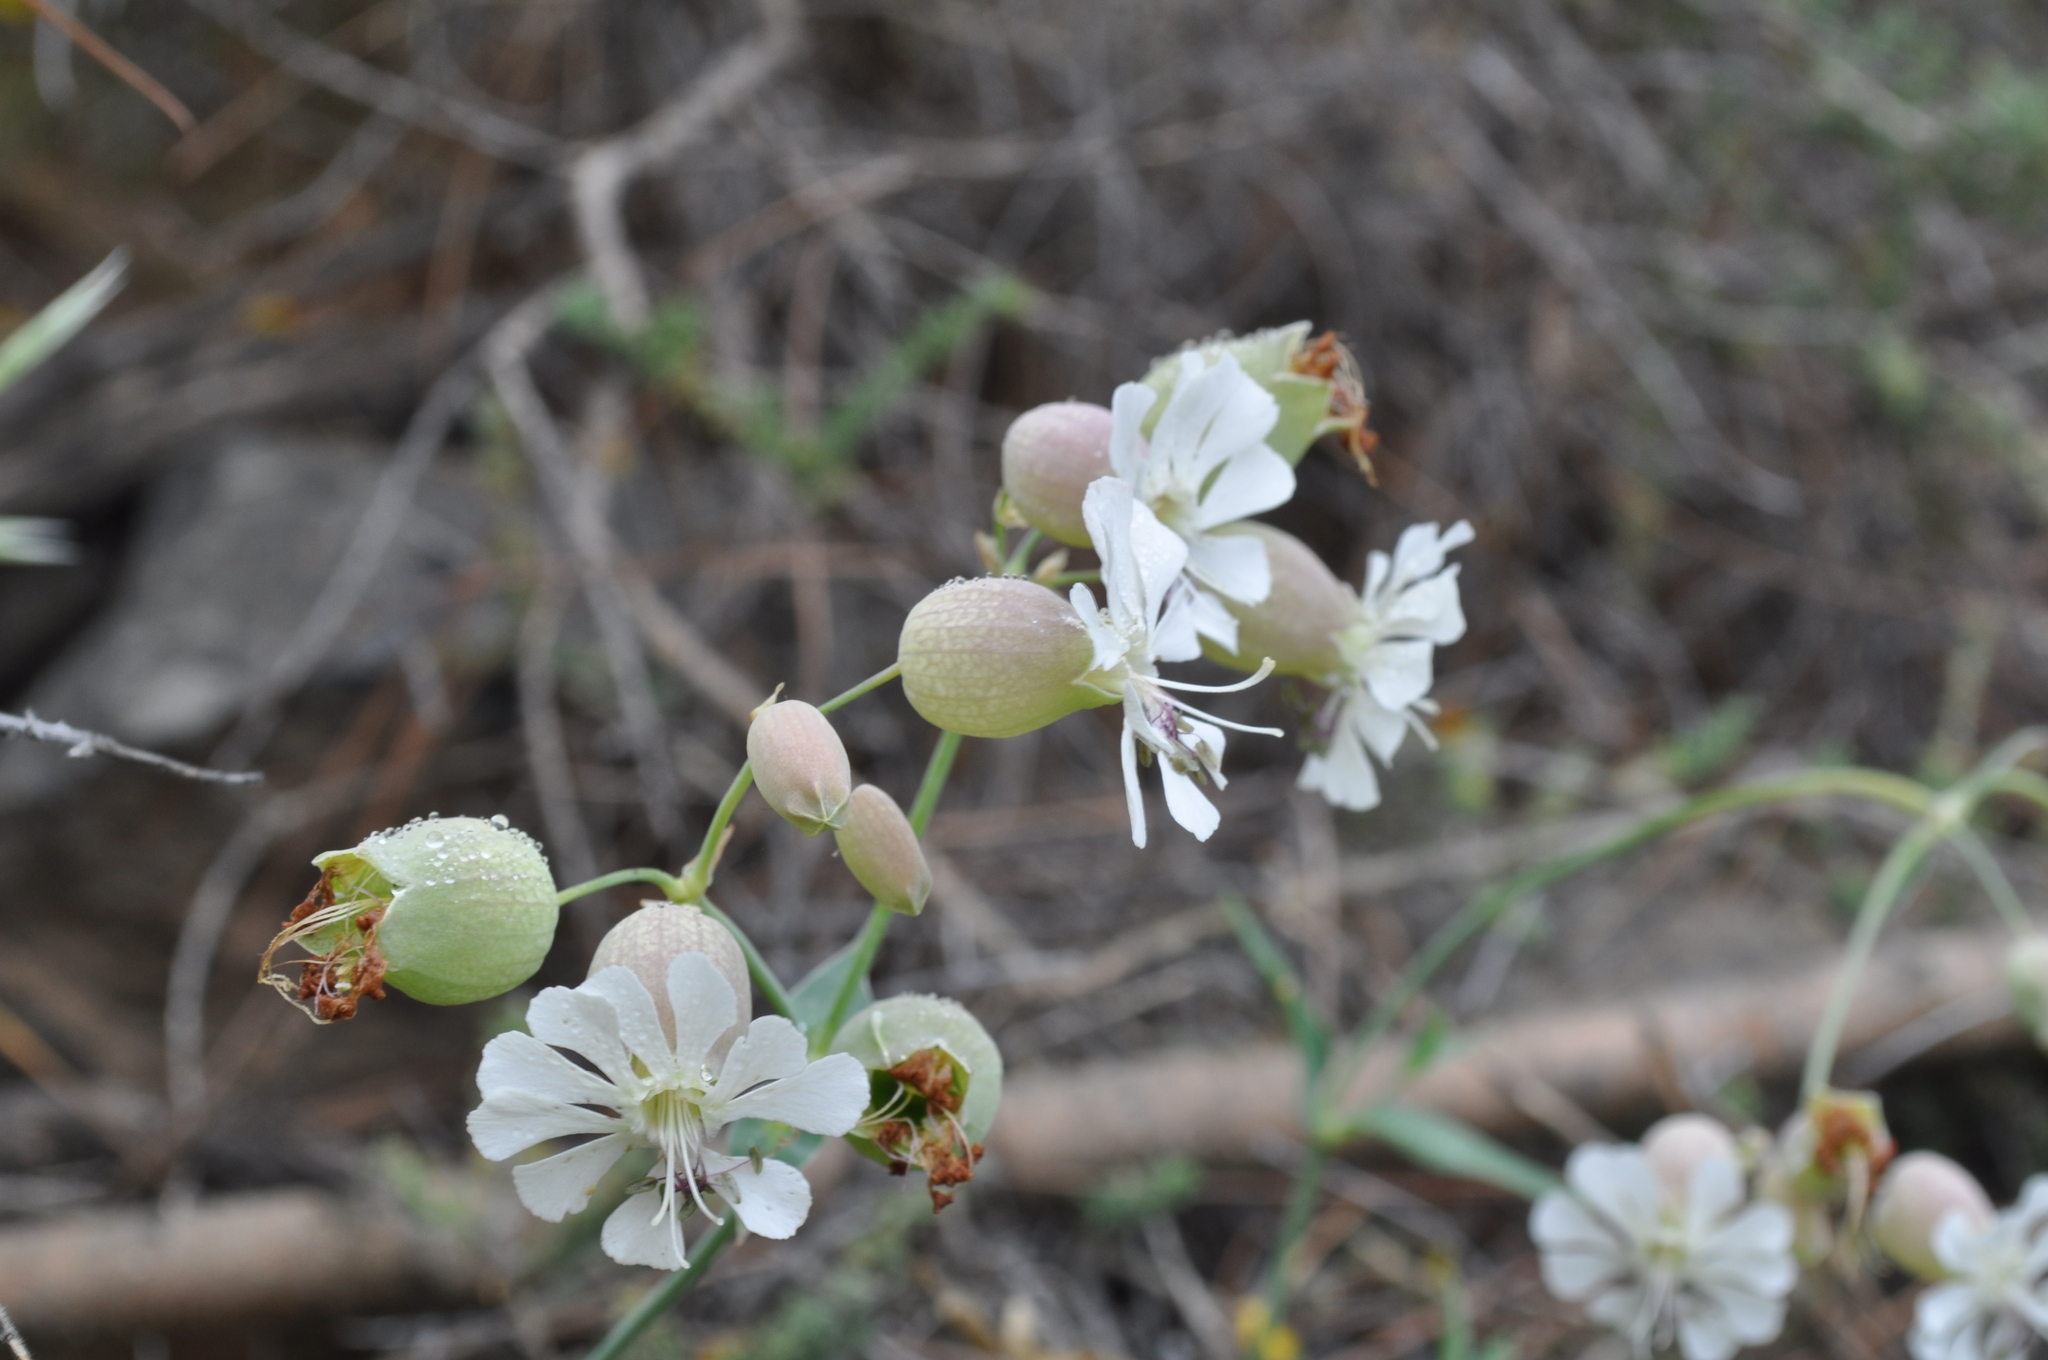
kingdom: Plantae
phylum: Tracheophyta
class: Magnoliopsida
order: Caryophyllales
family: Caryophyllaceae
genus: Silene
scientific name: Silene vulgaris
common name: Bladder campion
